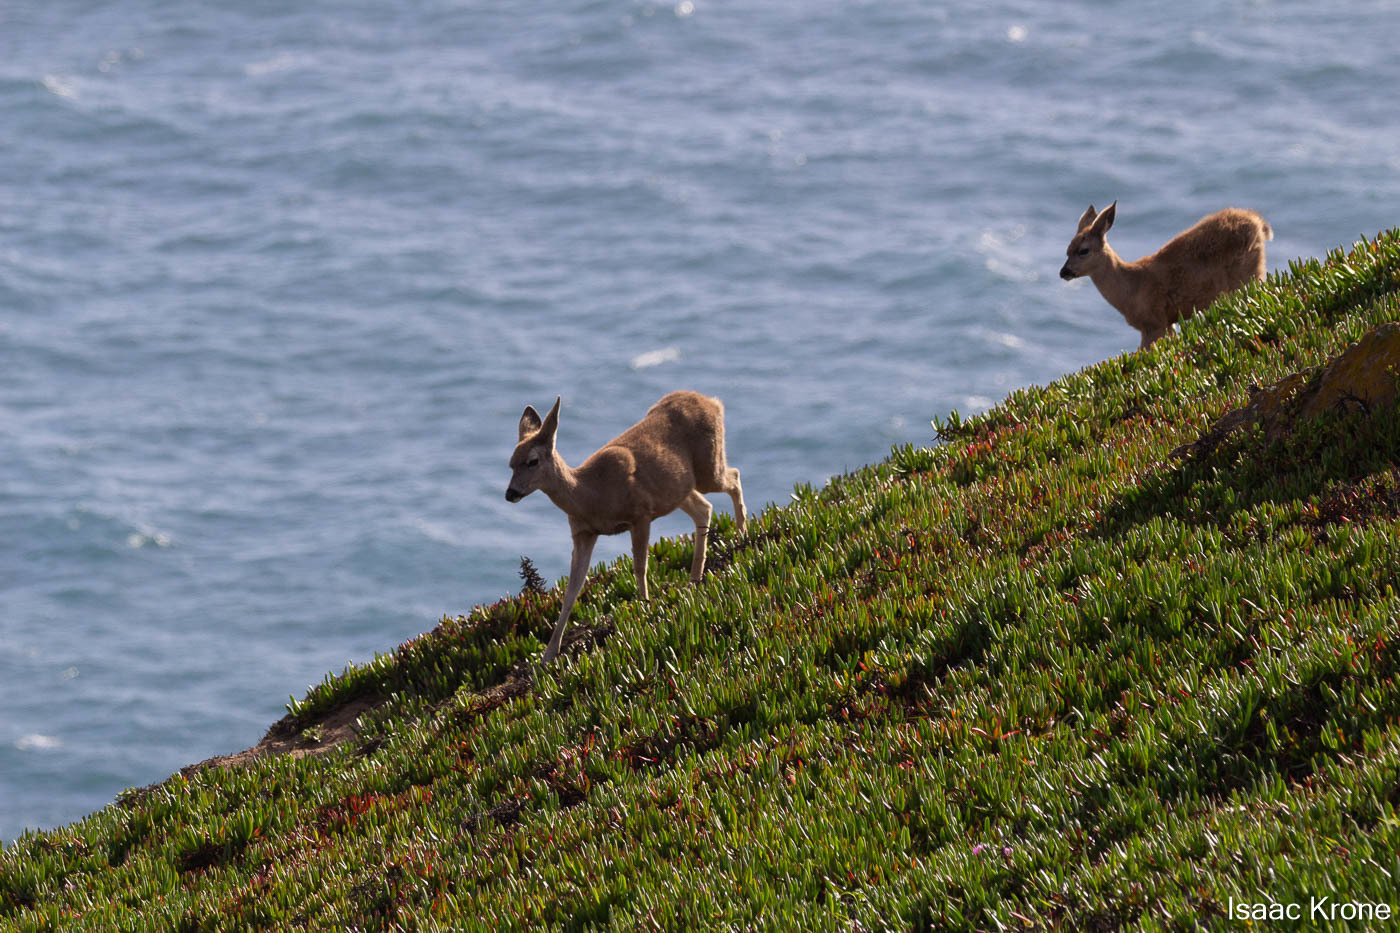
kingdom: Animalia
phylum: Chordata
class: Mammalia
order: Artiodactyla
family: Cervidae
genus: Odocoileus
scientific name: Odocoileus hemionus
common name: Mule deer
